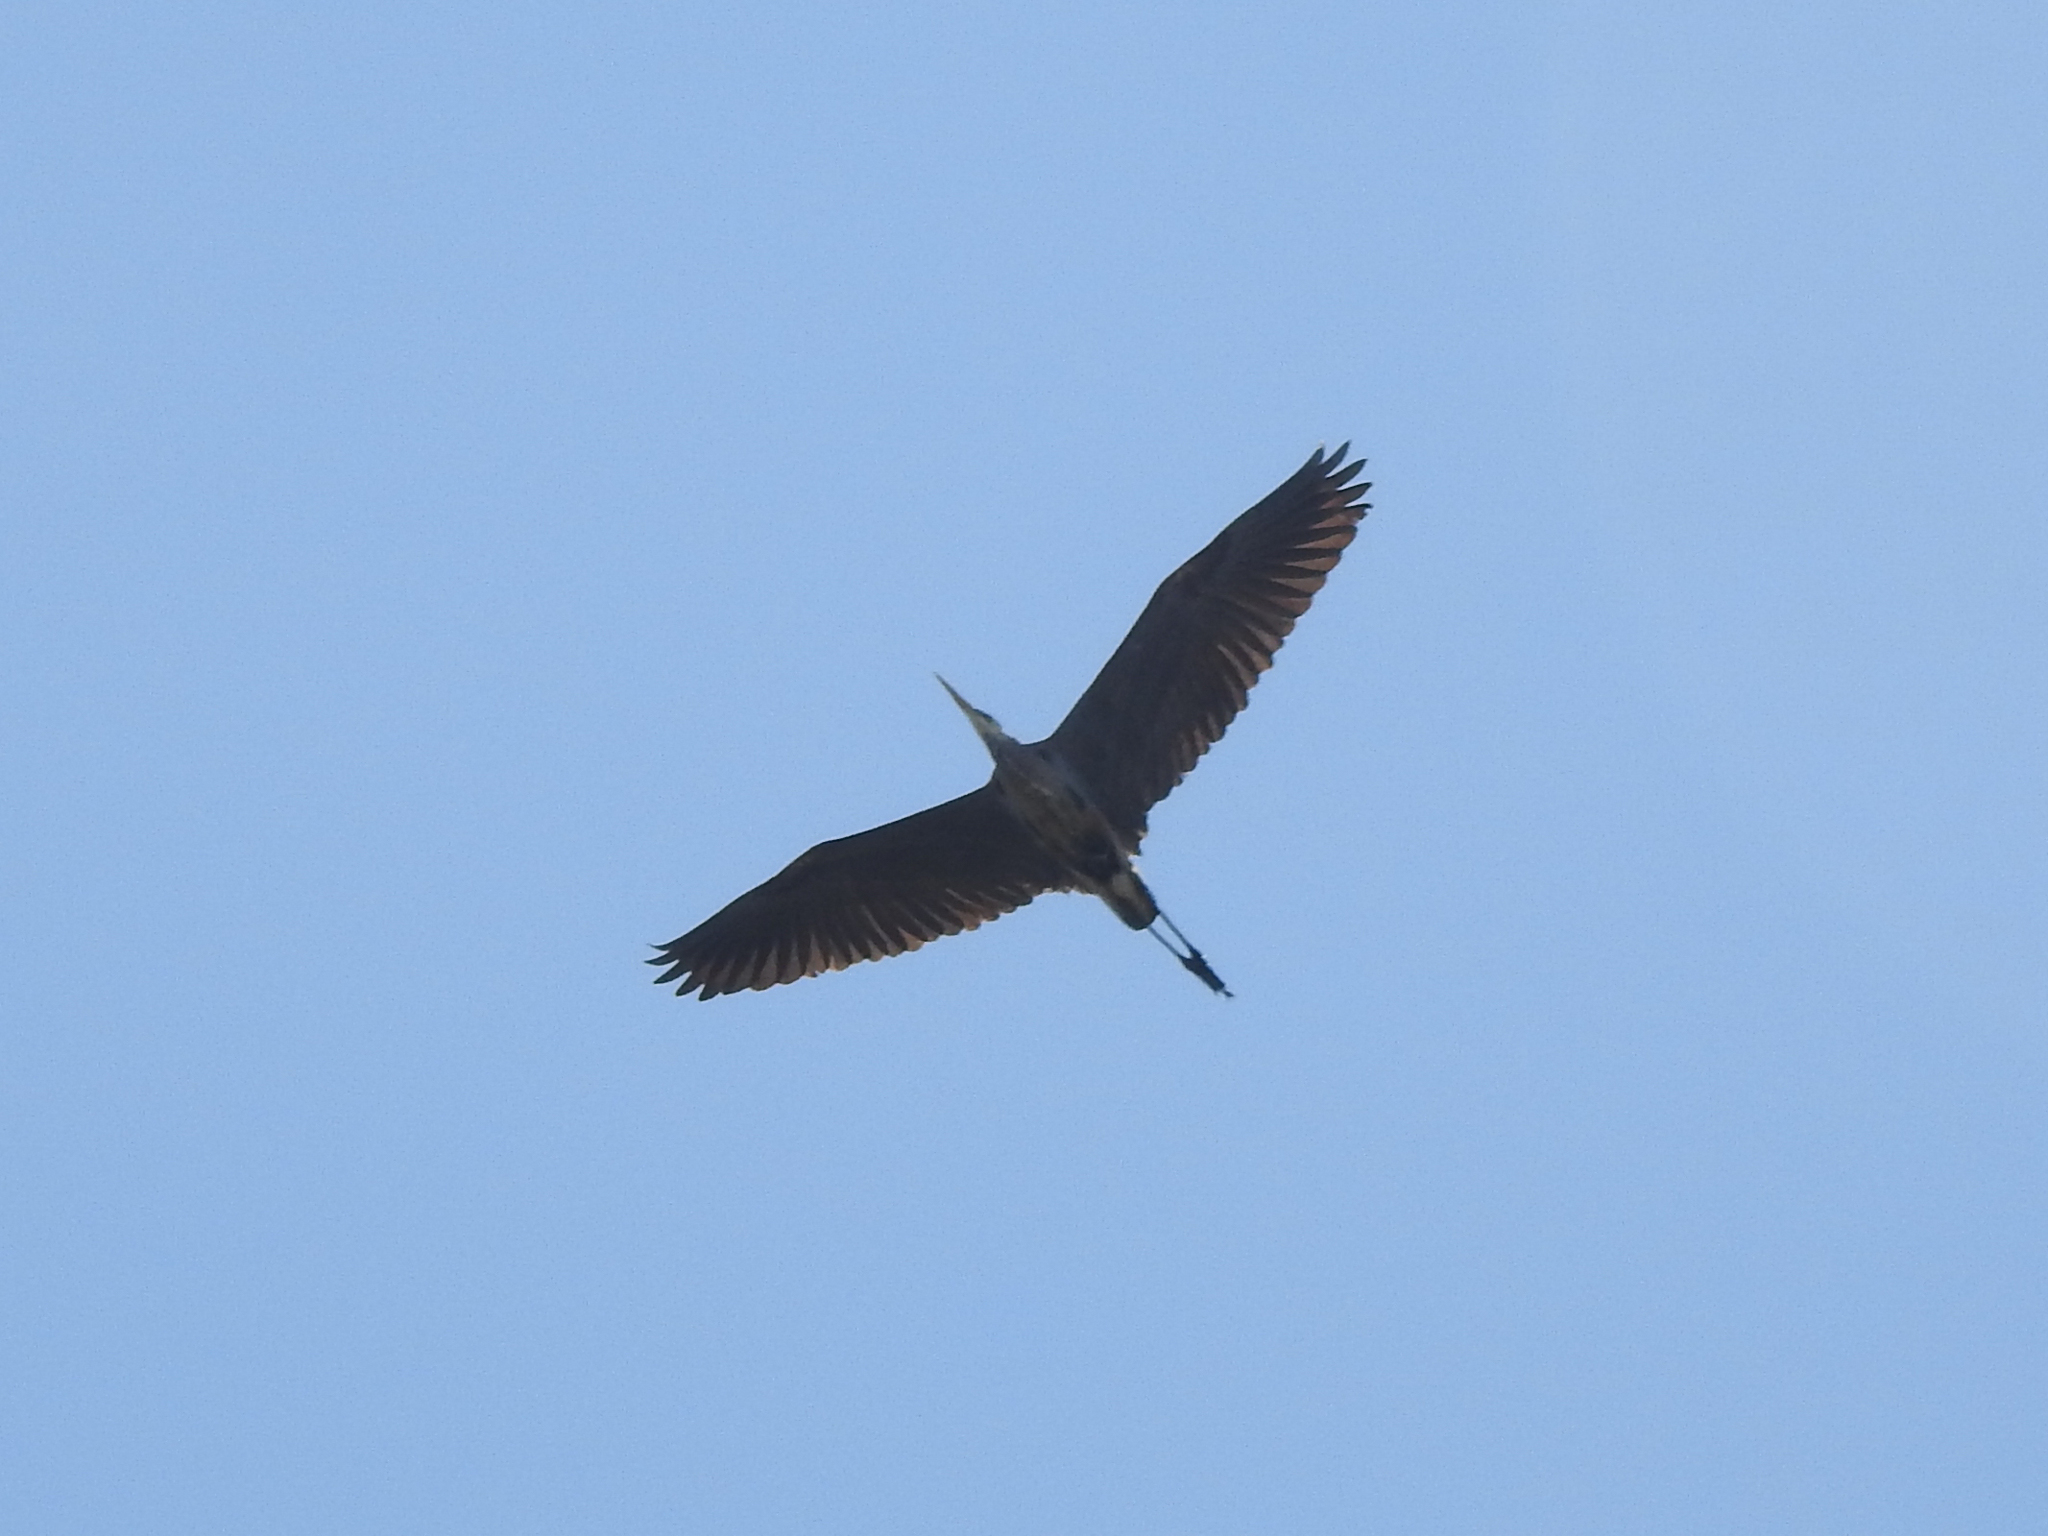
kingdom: Animalia
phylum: Chordata
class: Aves
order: Pelecaniformes
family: Ardeidae
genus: Ardea
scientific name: Ardea herodias
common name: Great blue heron
